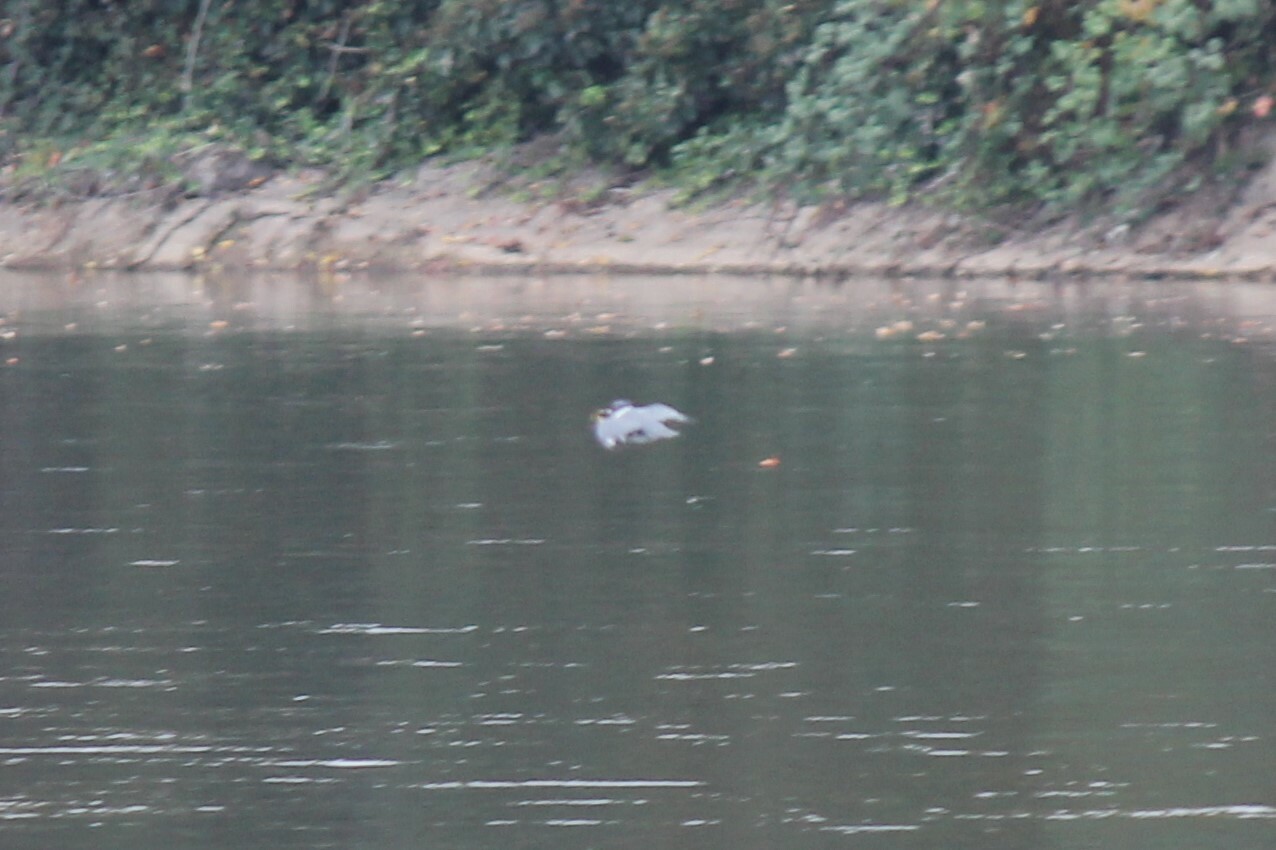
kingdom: Animalia
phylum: Chordata
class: Aves
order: Coraciiformes
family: Alcedinidae
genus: Megaceryle
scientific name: Megaceryle alcyon
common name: Belted kingfisher
